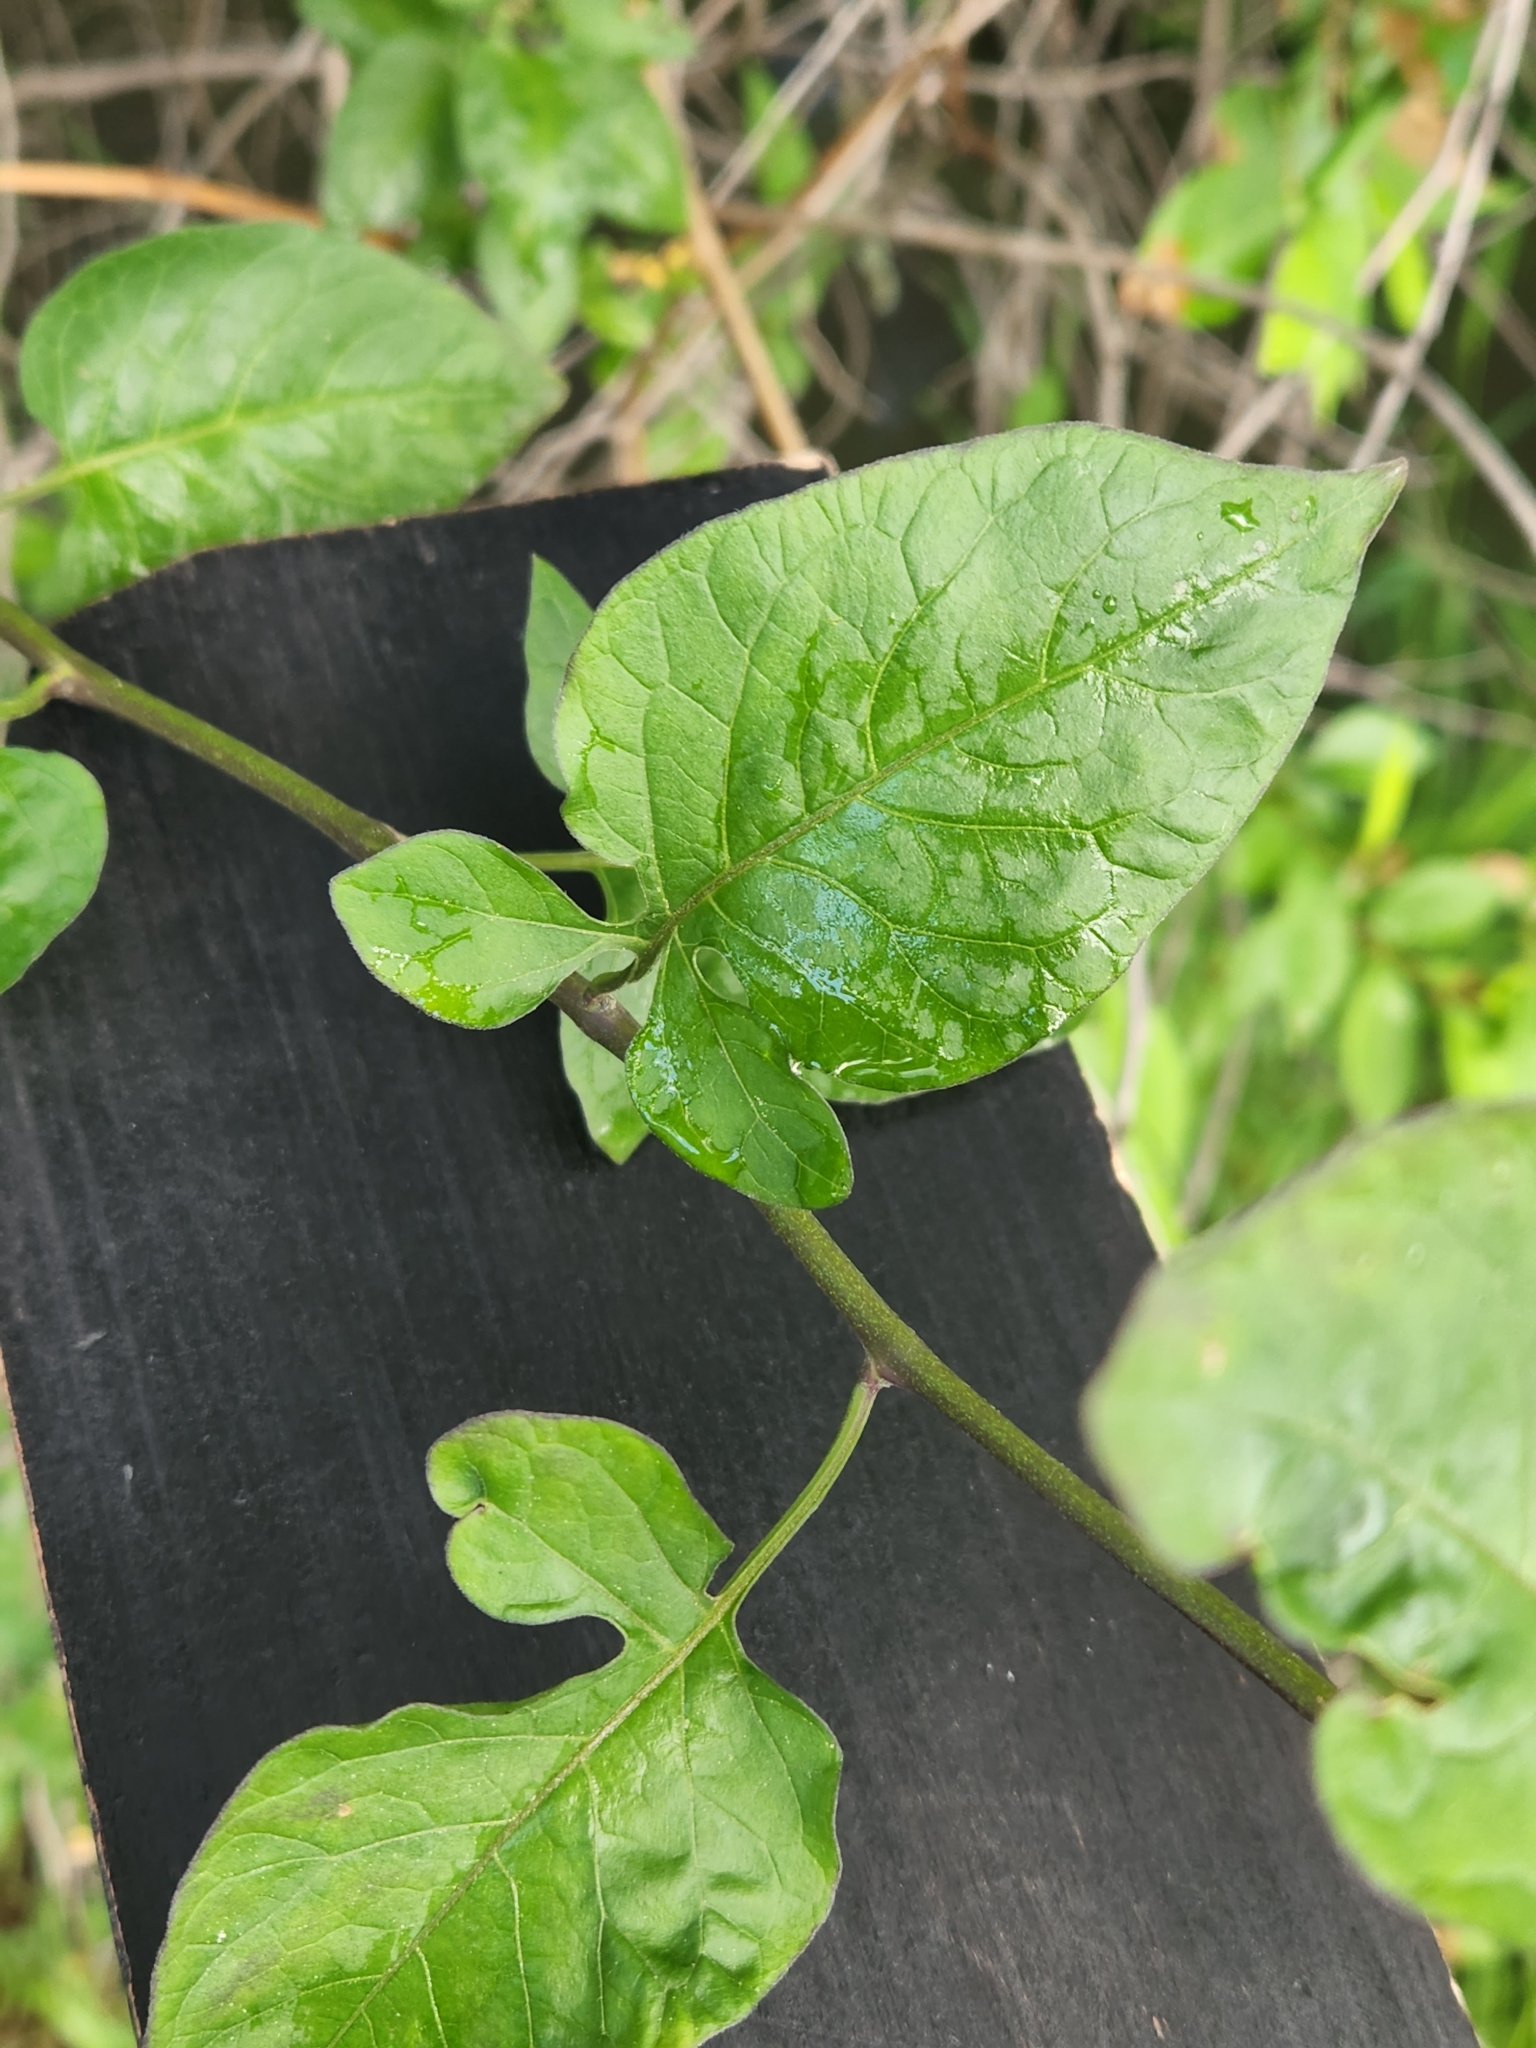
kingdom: Plantae
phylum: Tracheophyta
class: Magnoliopsida
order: Solanales
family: Solanaceae
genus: Solanum
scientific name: Solanum dulcamara
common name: Climbing nightshade
